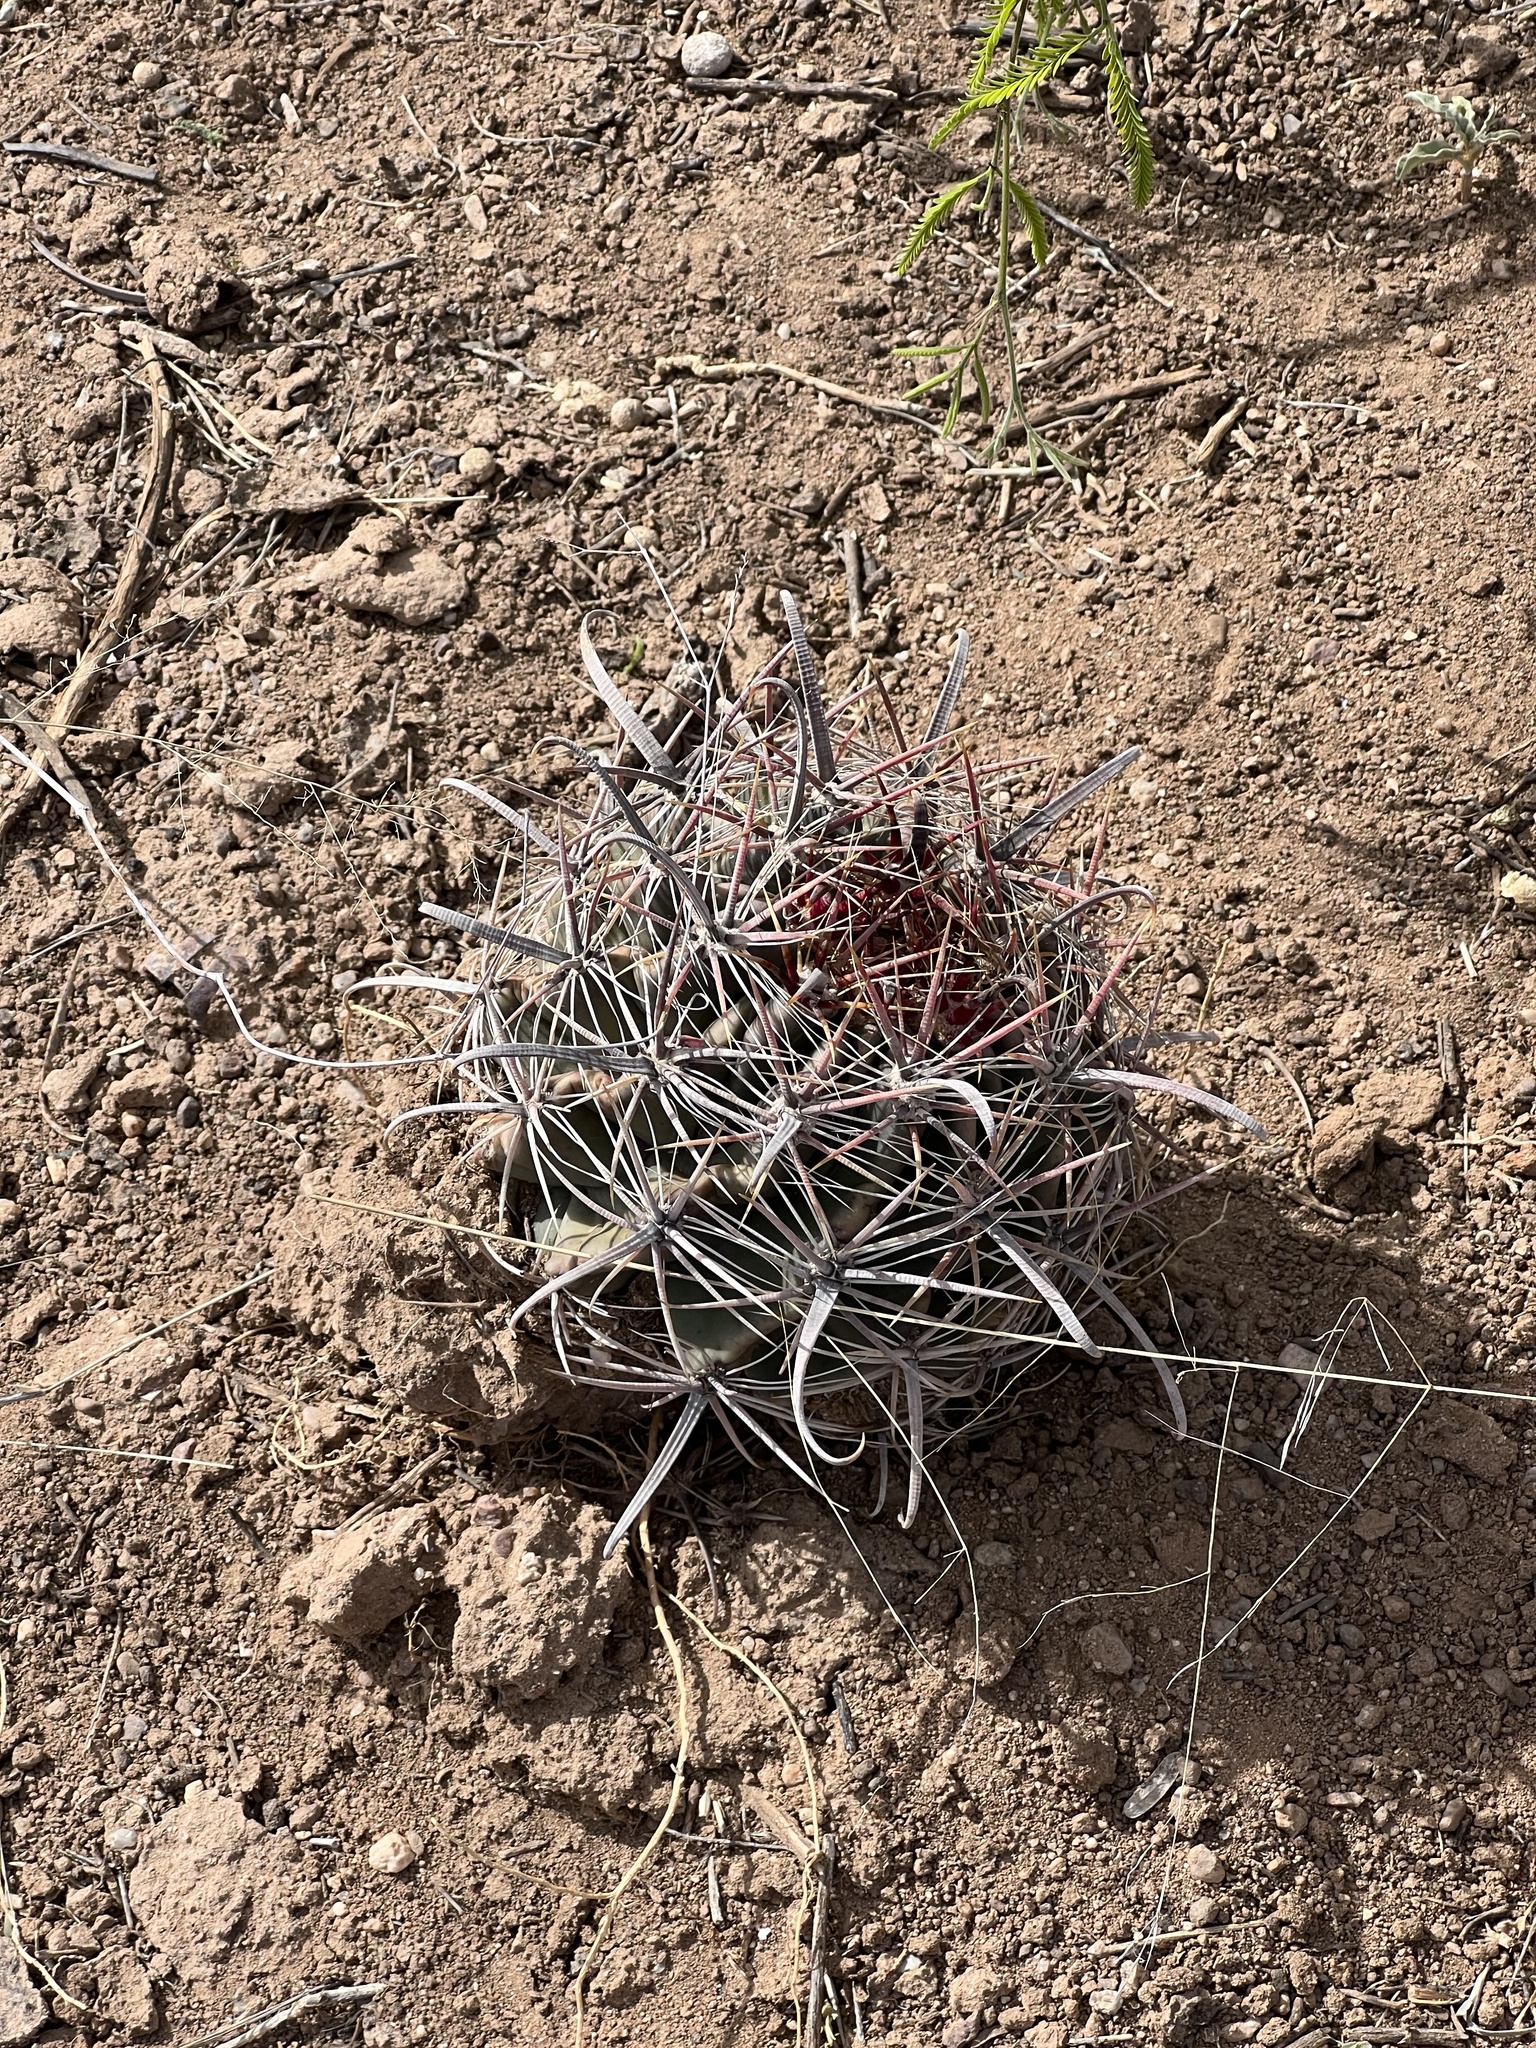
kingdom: Plantae
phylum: Tracheophyta
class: Magnoliopsida
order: Caryophyllales
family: Cactaceae
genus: Ferocactus
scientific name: Ferocactus wislizeni
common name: Candy barrel cactus
